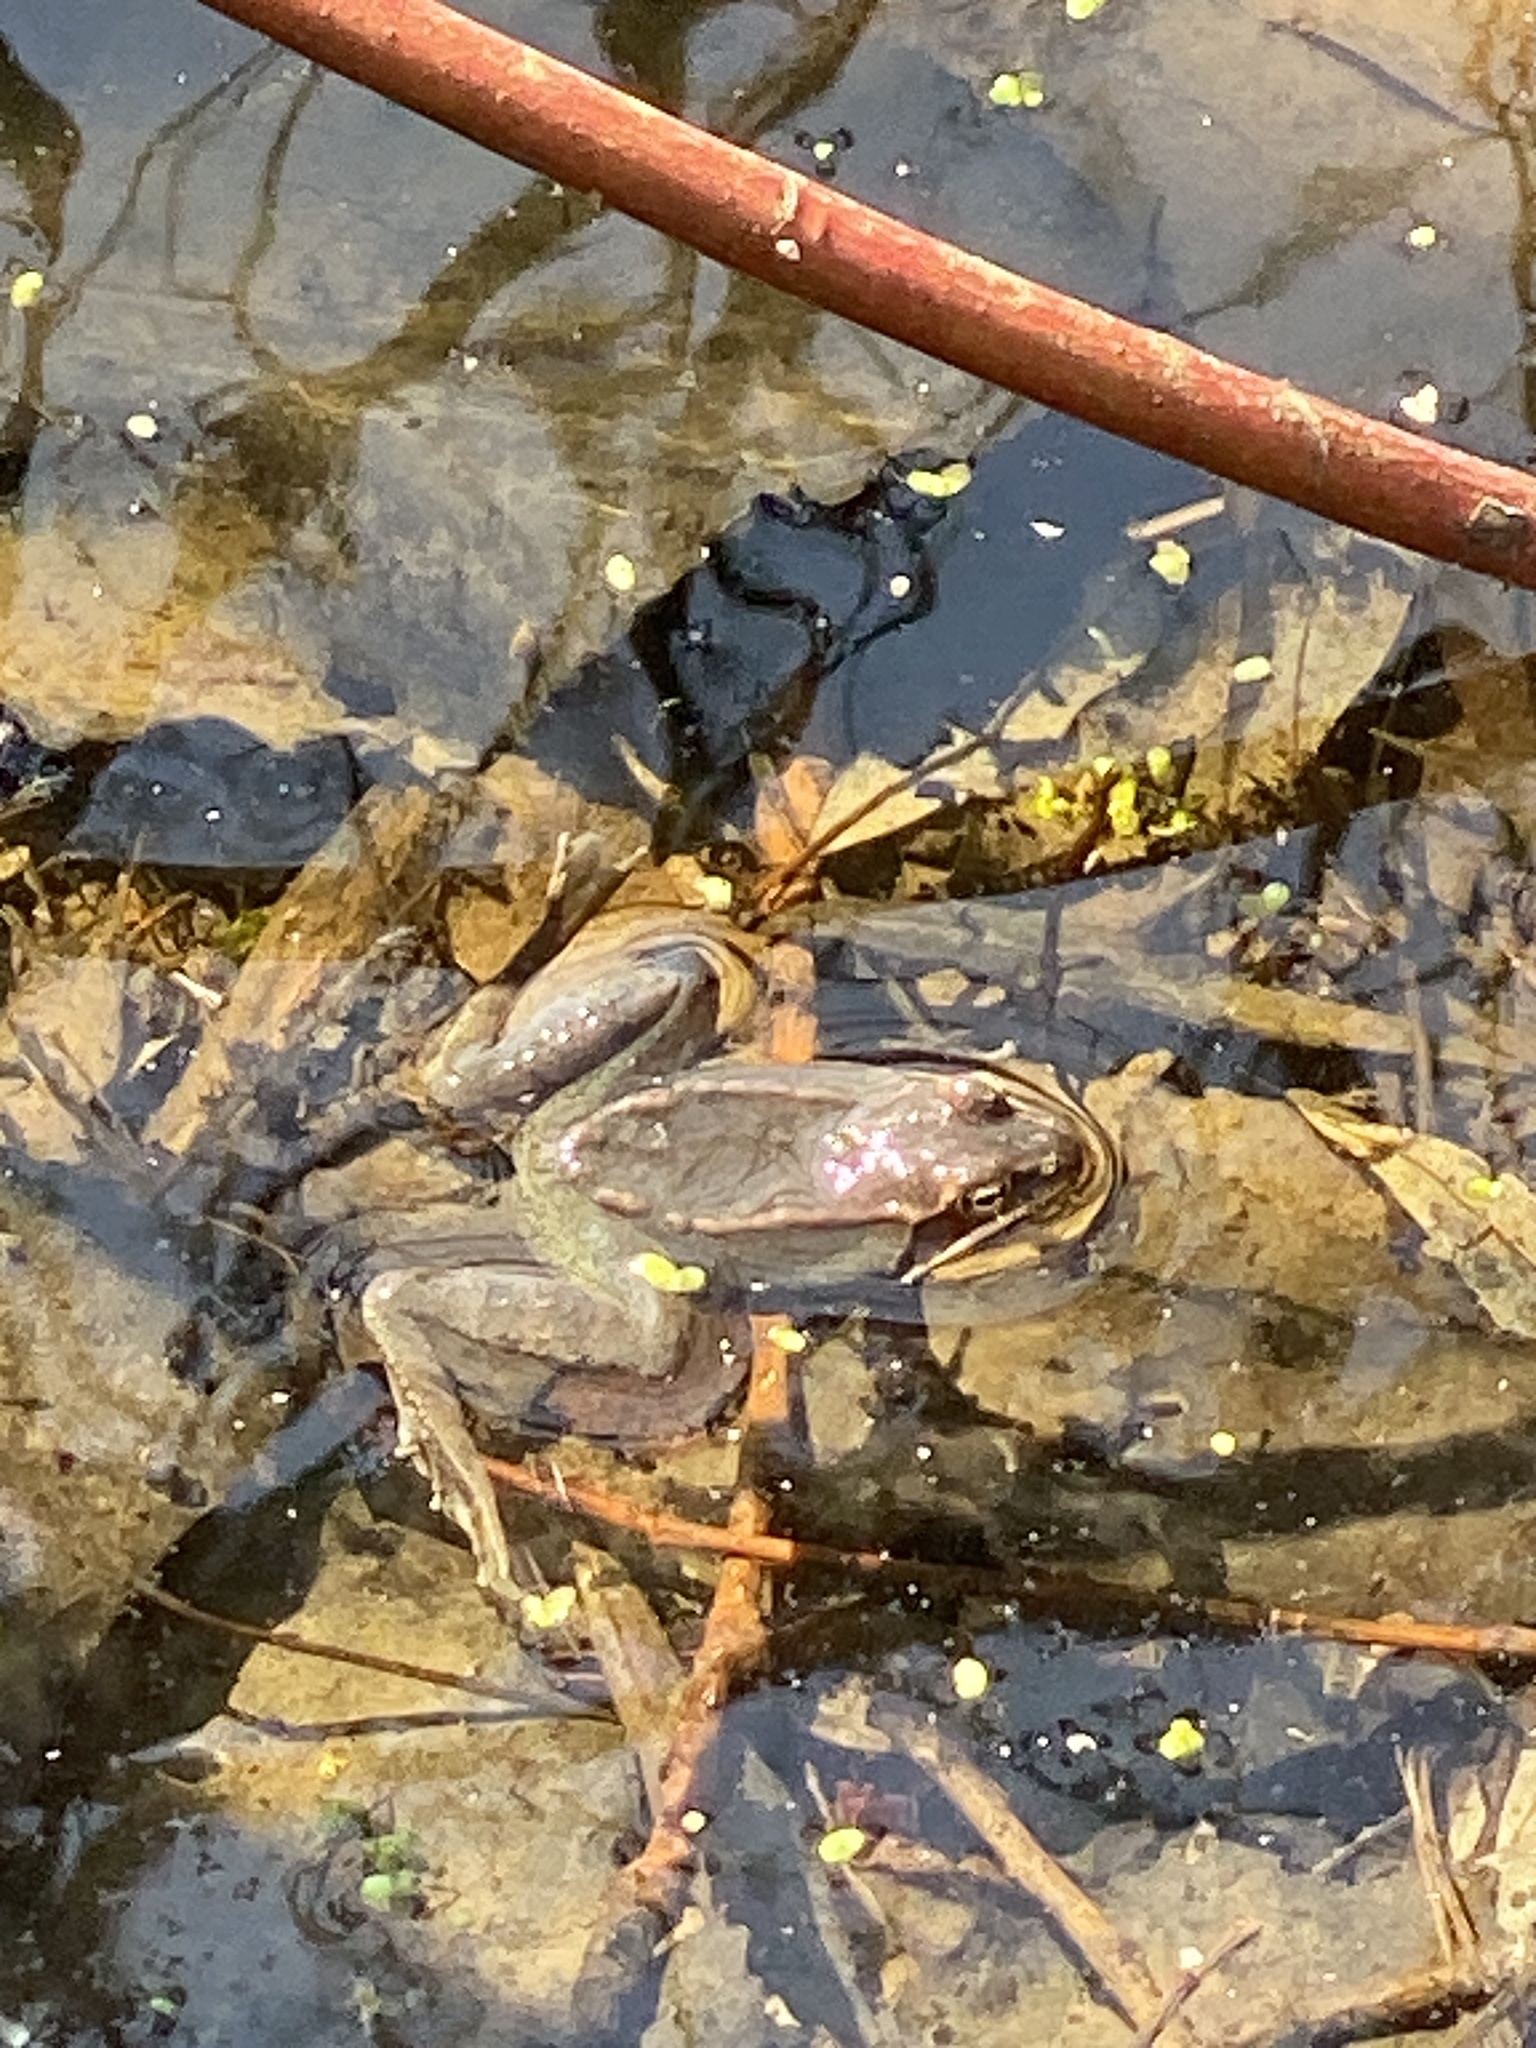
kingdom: Animalia
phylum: Chordata
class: Amphibia
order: Anura
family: Ranidae
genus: Lithobates
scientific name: Lithobates sylvaticus
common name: Wood frog
